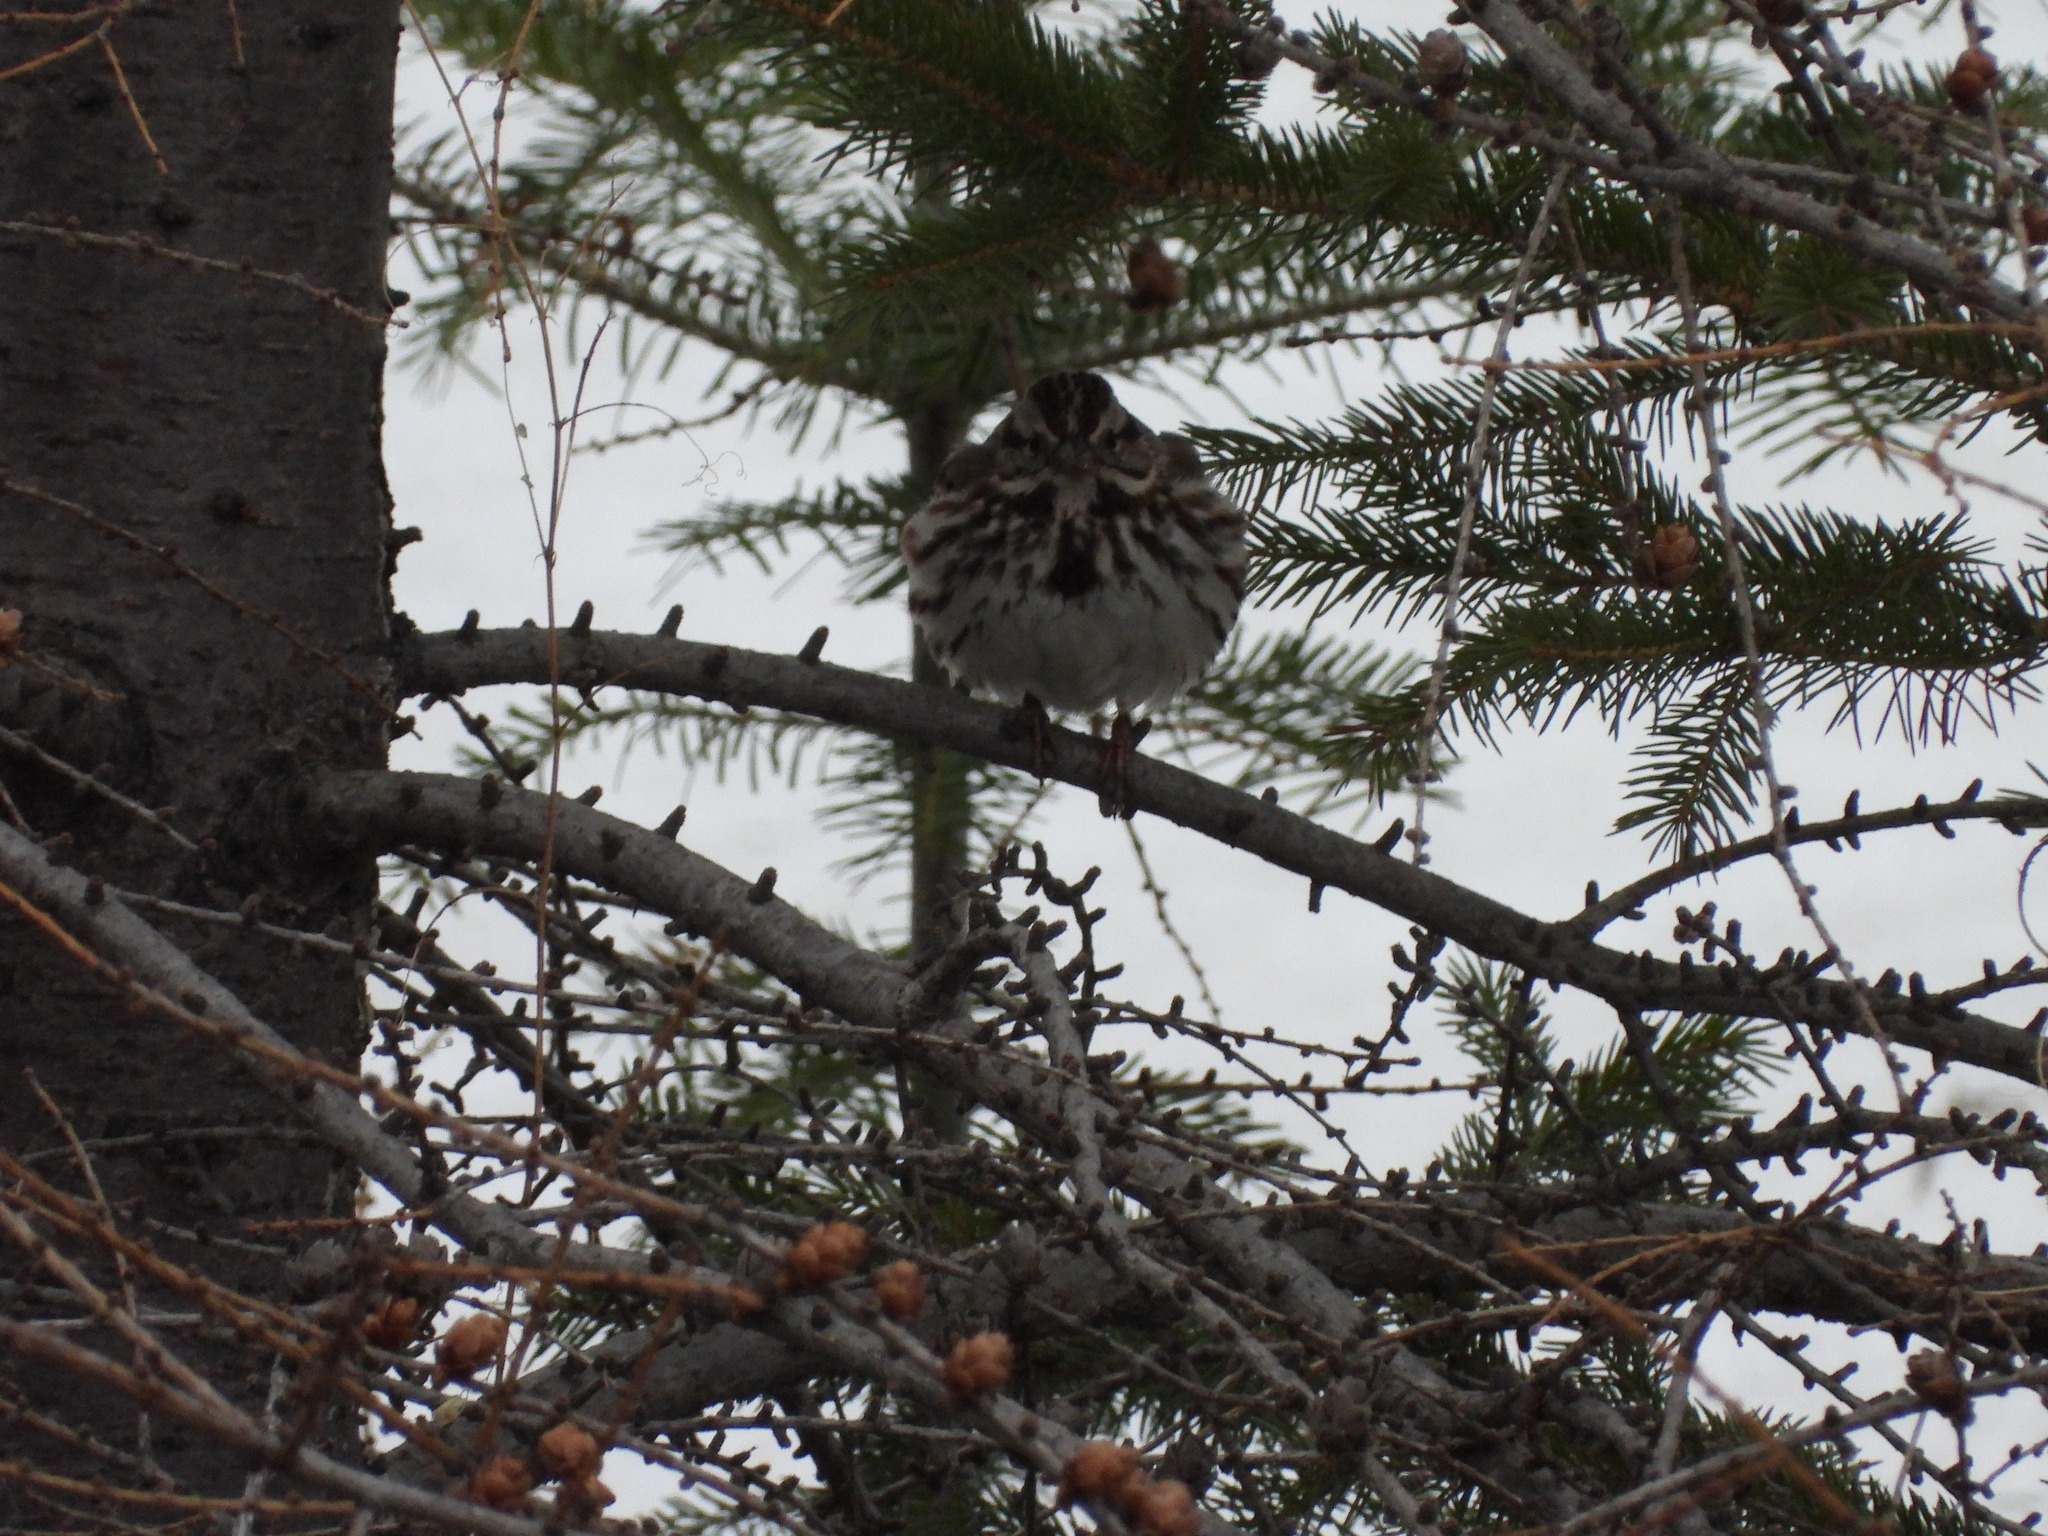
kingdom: Animalia
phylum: Chordata
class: Aves
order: Passeriformes
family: Passerellidae
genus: Melospiza
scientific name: Melospiza melodia
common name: Song sparrow
